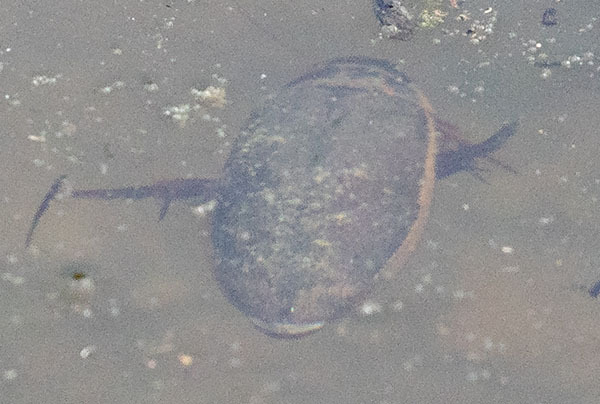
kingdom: Animalia
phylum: Arthropoda
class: Insecta
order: Coleoptera
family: Dytiscidae
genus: Dytiscus
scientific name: Dytiscus marginicollis
